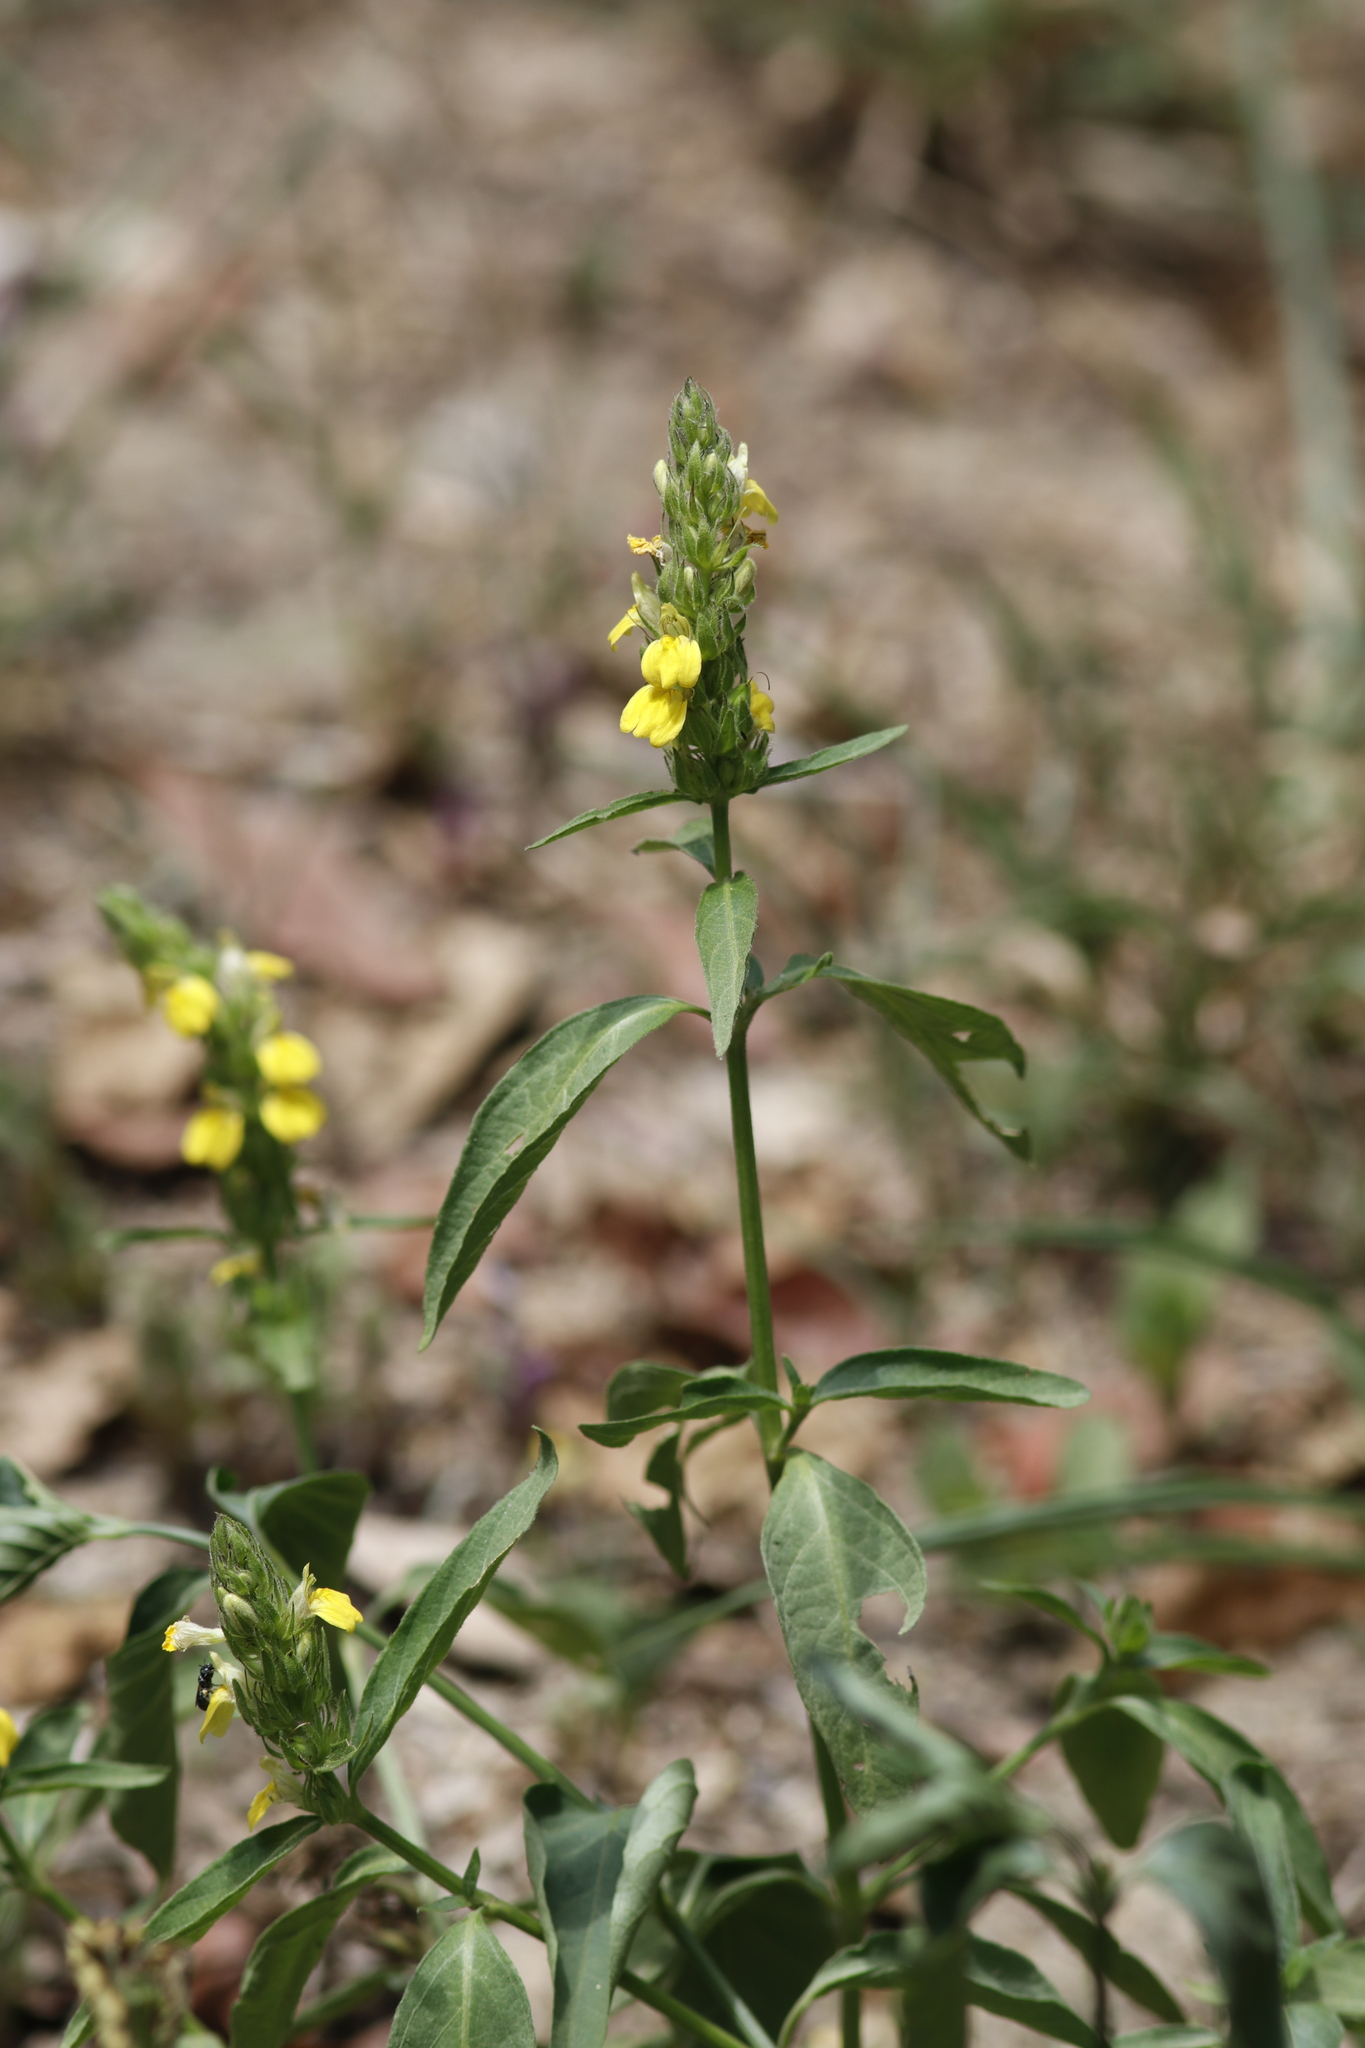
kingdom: Plantae
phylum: Tracheophyta
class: Magnoliopsida
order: Lamiales
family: Acanthaceae
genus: Justicia
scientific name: Justicia flava
